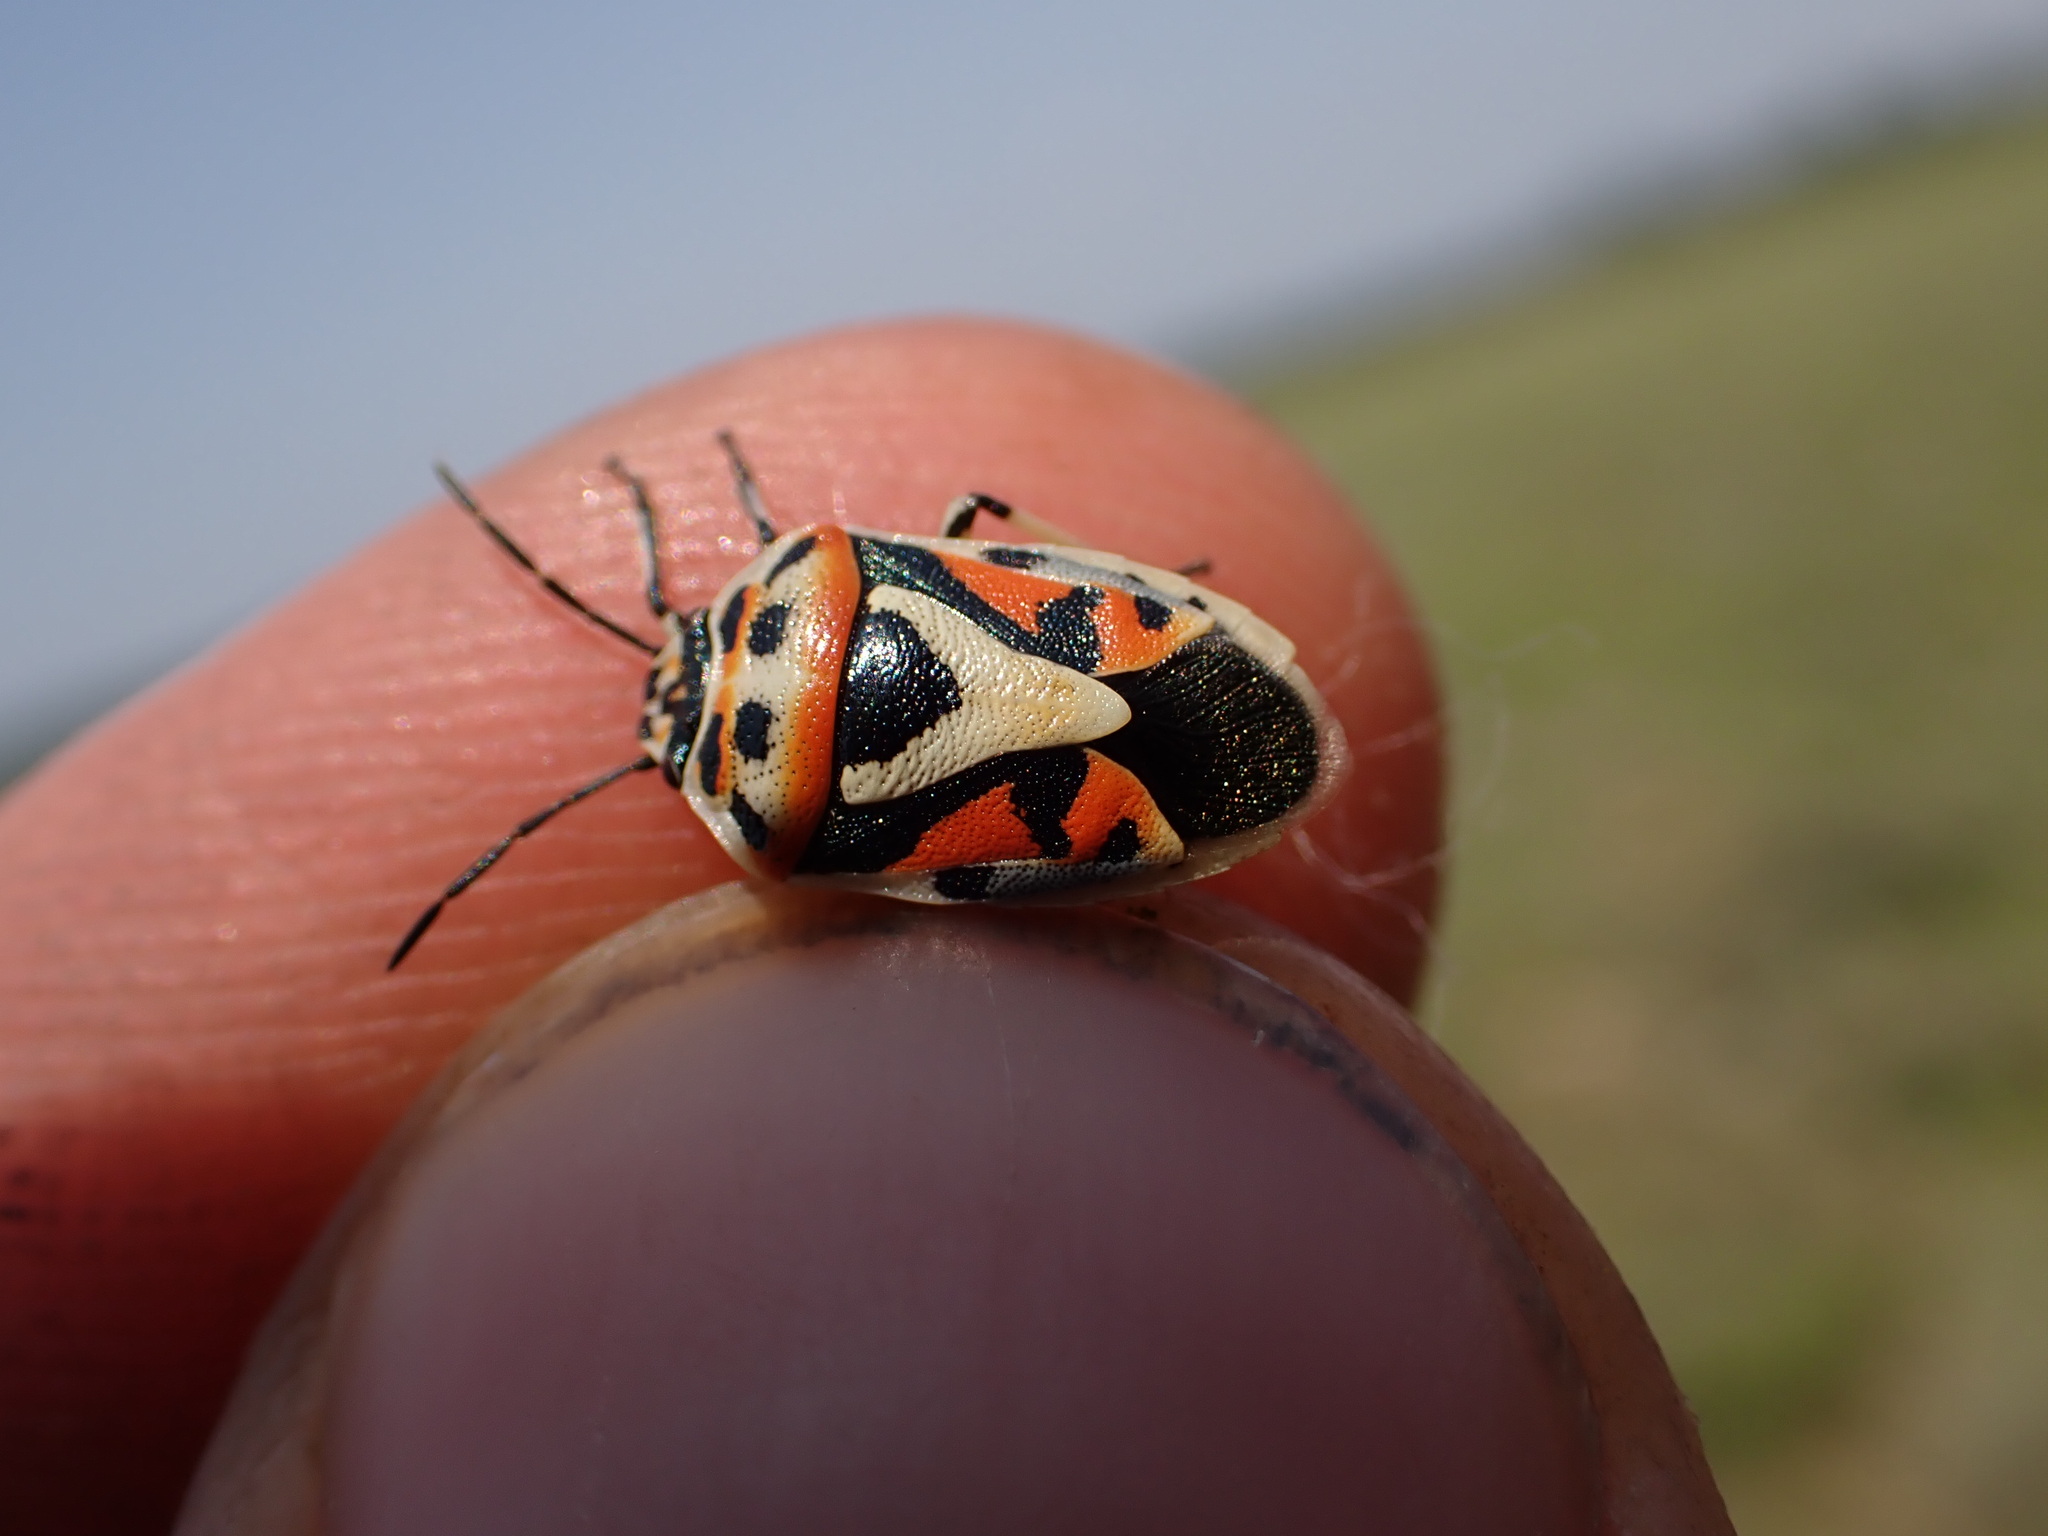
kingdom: Animalia
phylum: Arthropoda
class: Insecta
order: Hemiptera
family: Pentatomidae
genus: Eurydema
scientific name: Eurydema ornata
